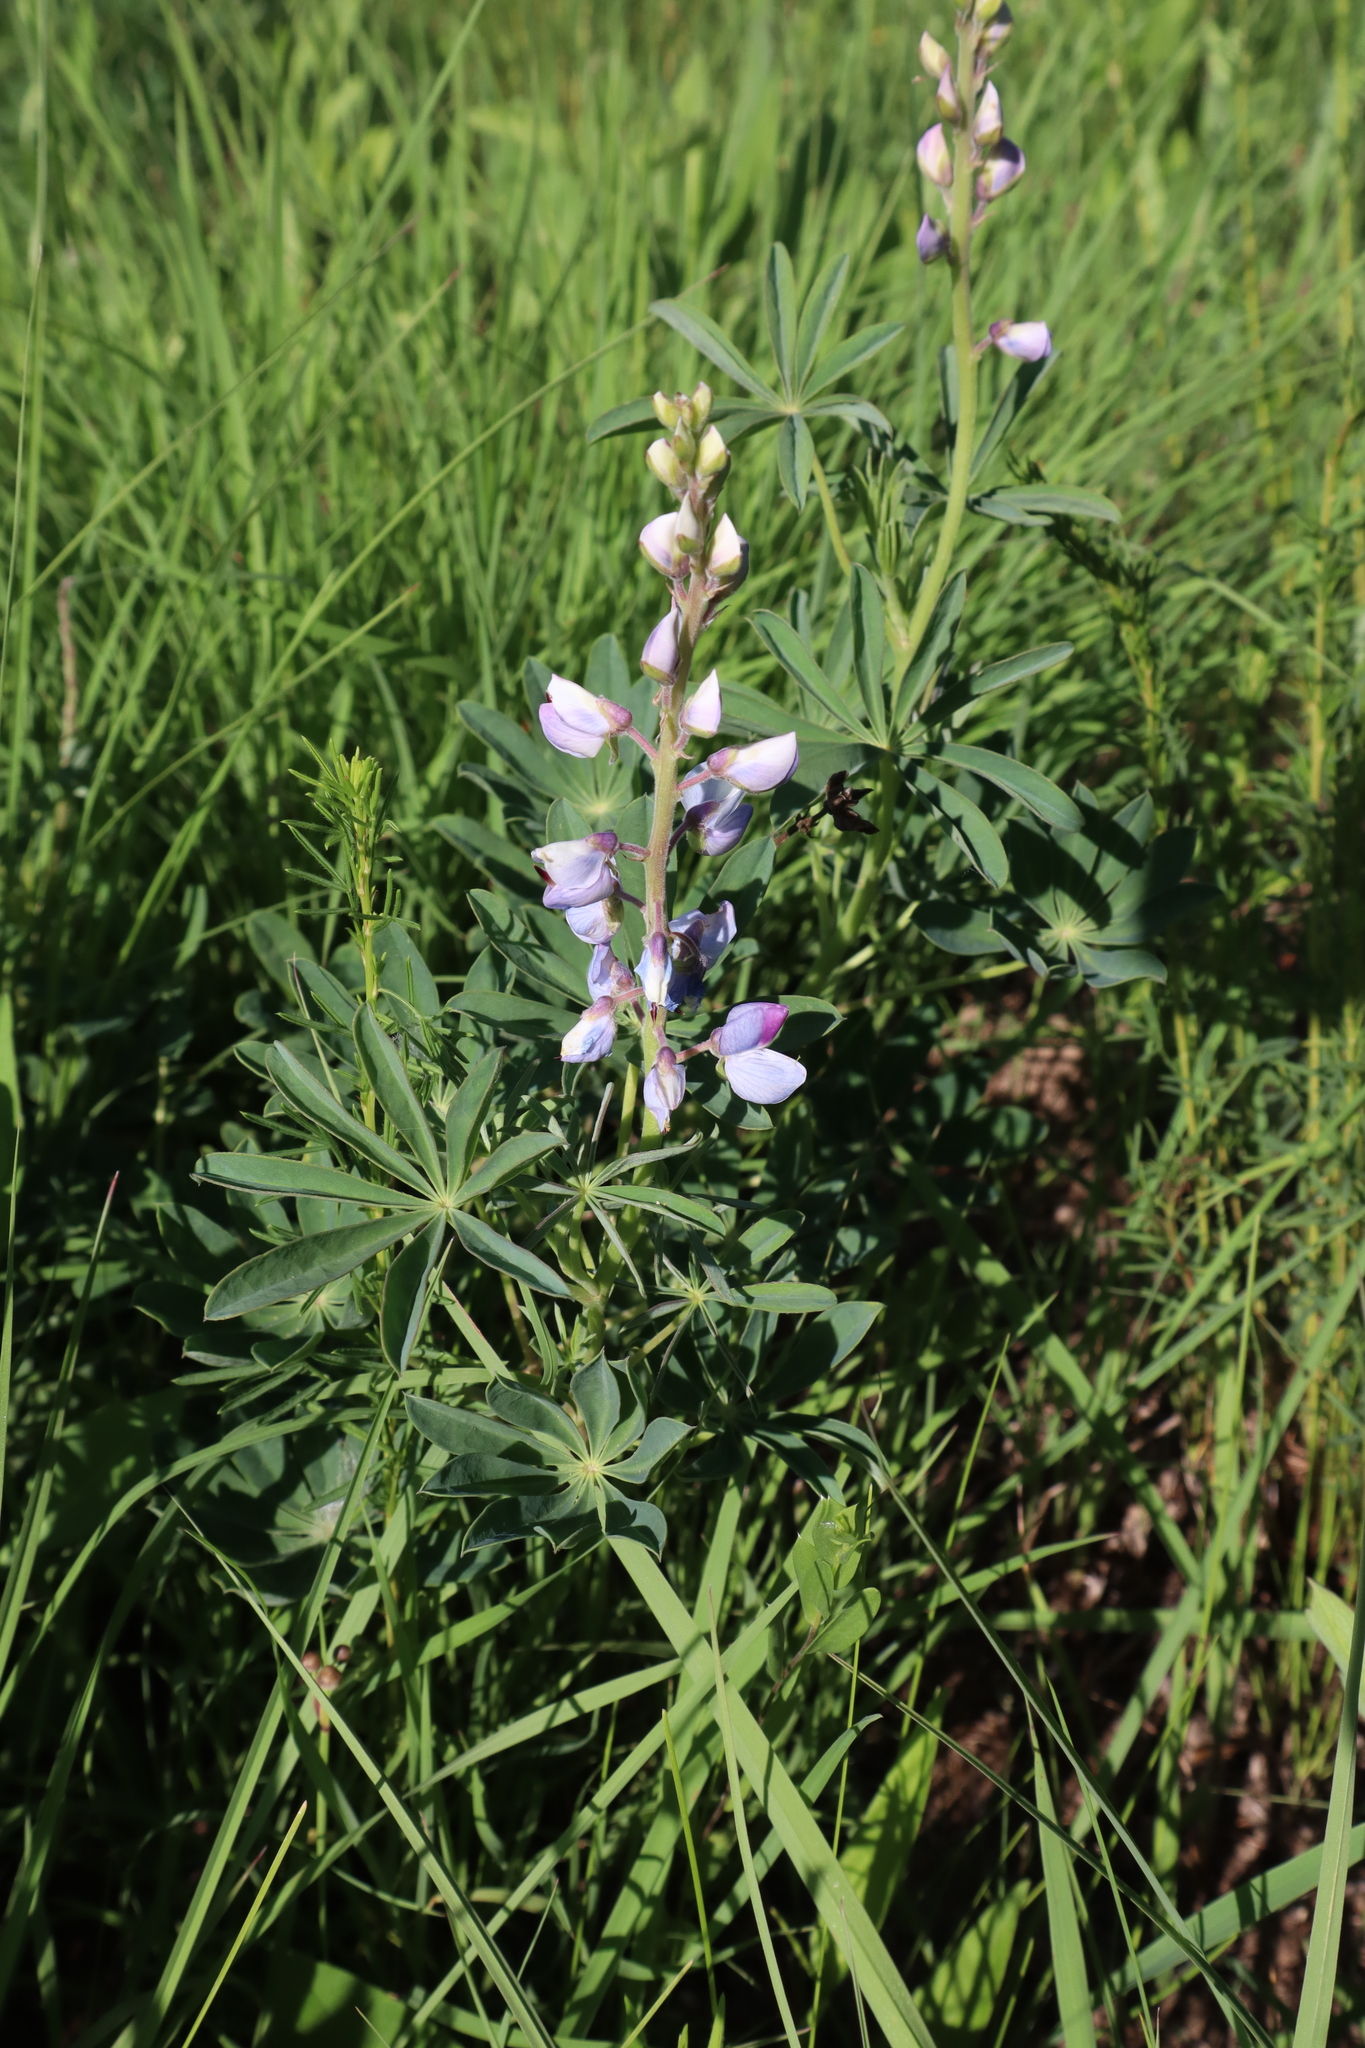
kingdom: Plantae
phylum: Tracheophyta
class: Magnoliopsida
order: Fabales
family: Fabaceae
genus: Lupinus
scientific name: Lupinus perennis
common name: Sundial lupine
